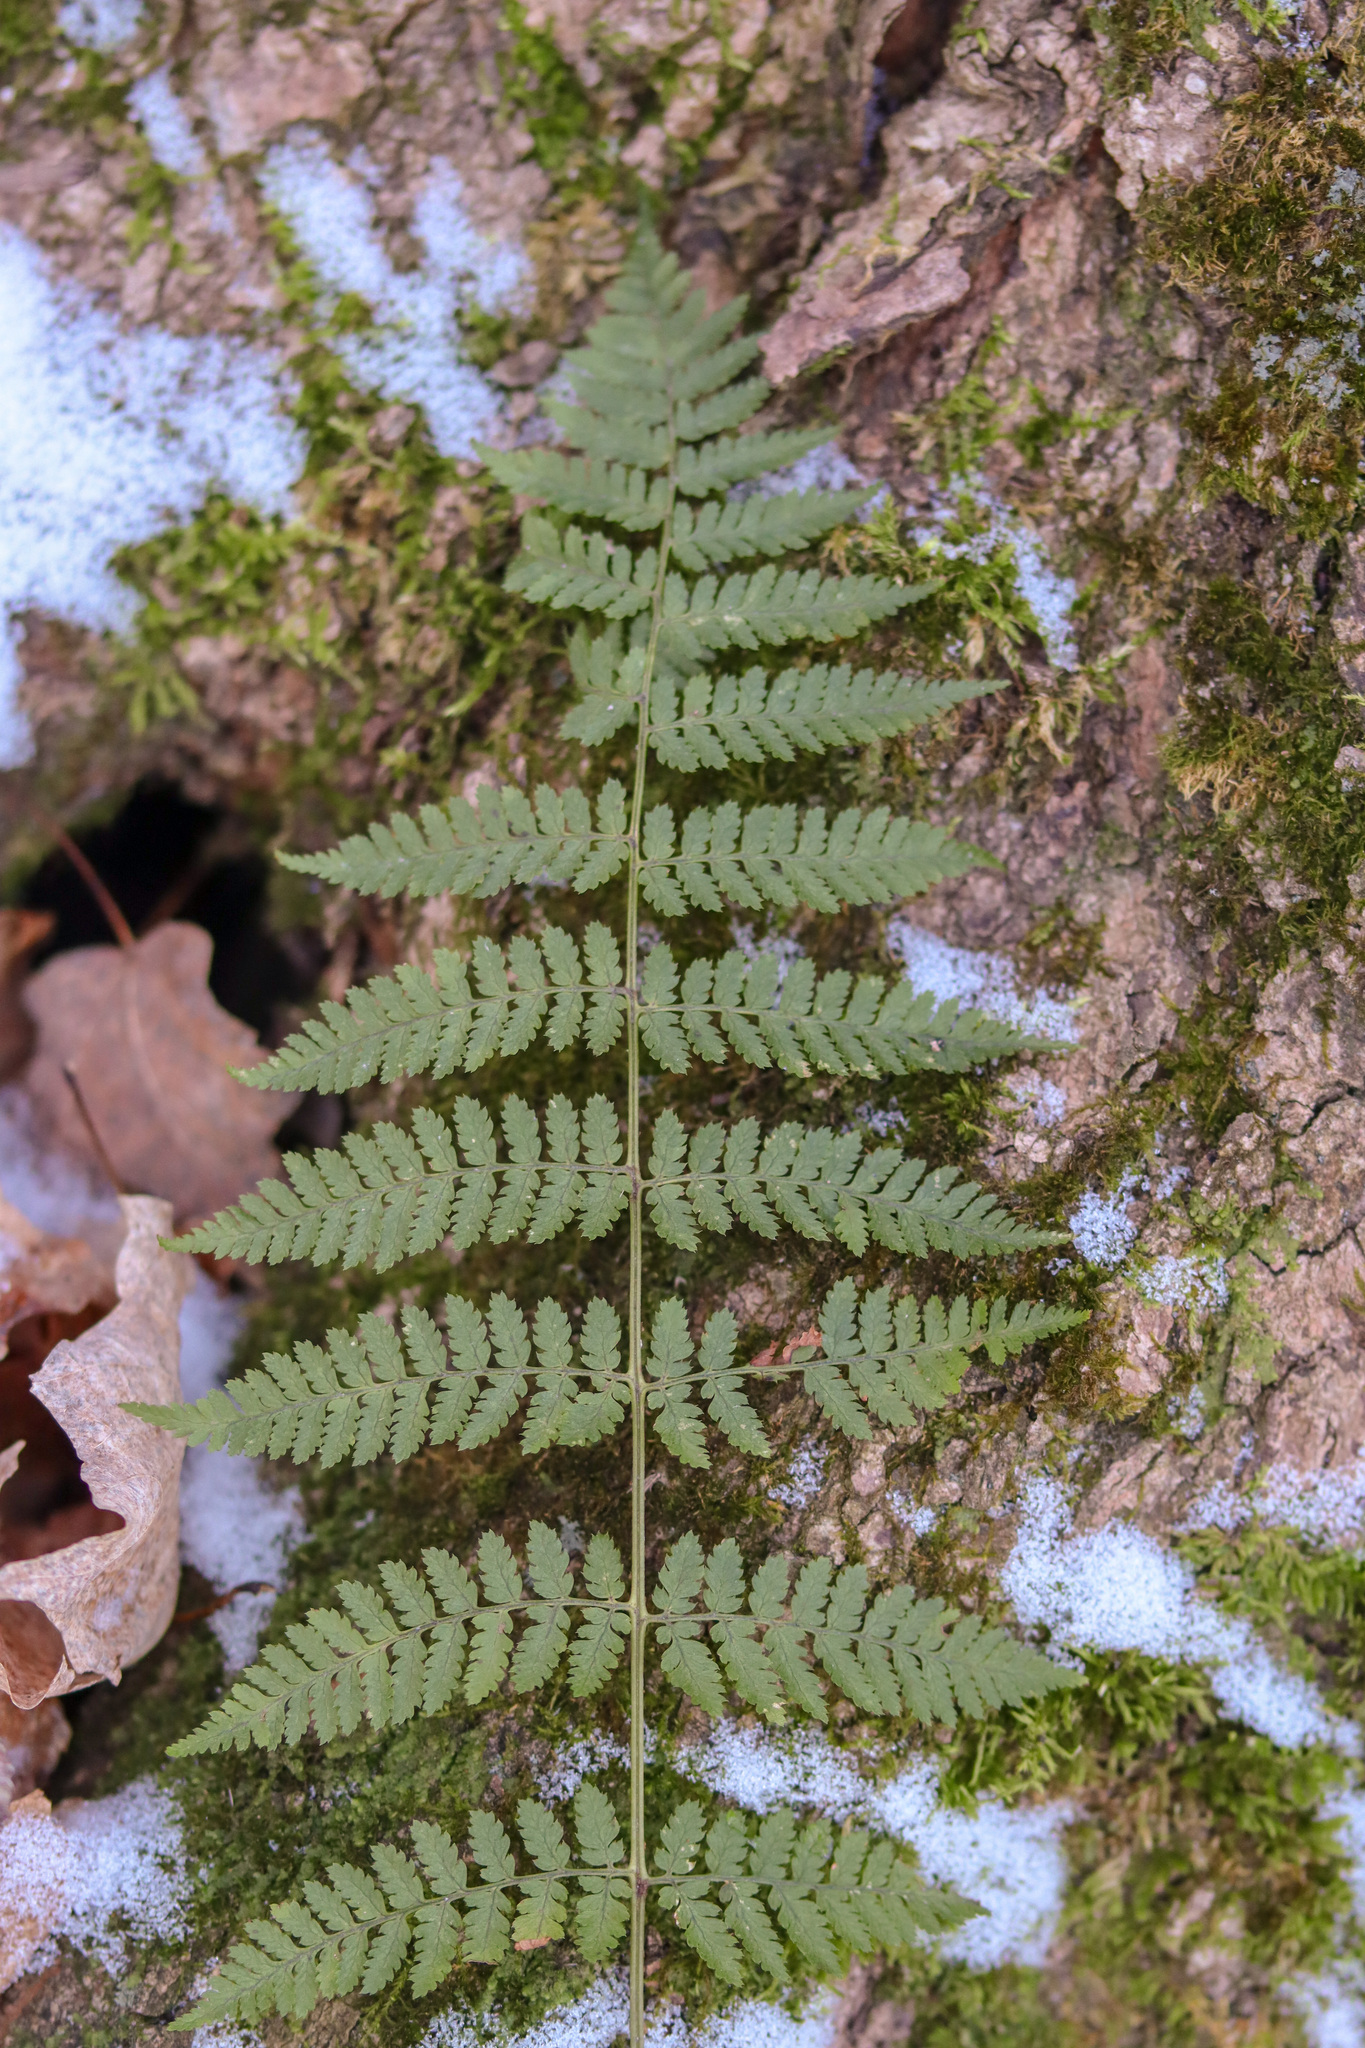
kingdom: Plantae
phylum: Tracheophyta
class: Polypodiopsida
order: Polypodiales
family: Dryopteridaceae
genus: Dryopteris
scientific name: Dryopteris intermedia
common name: Evergreen wood fern
